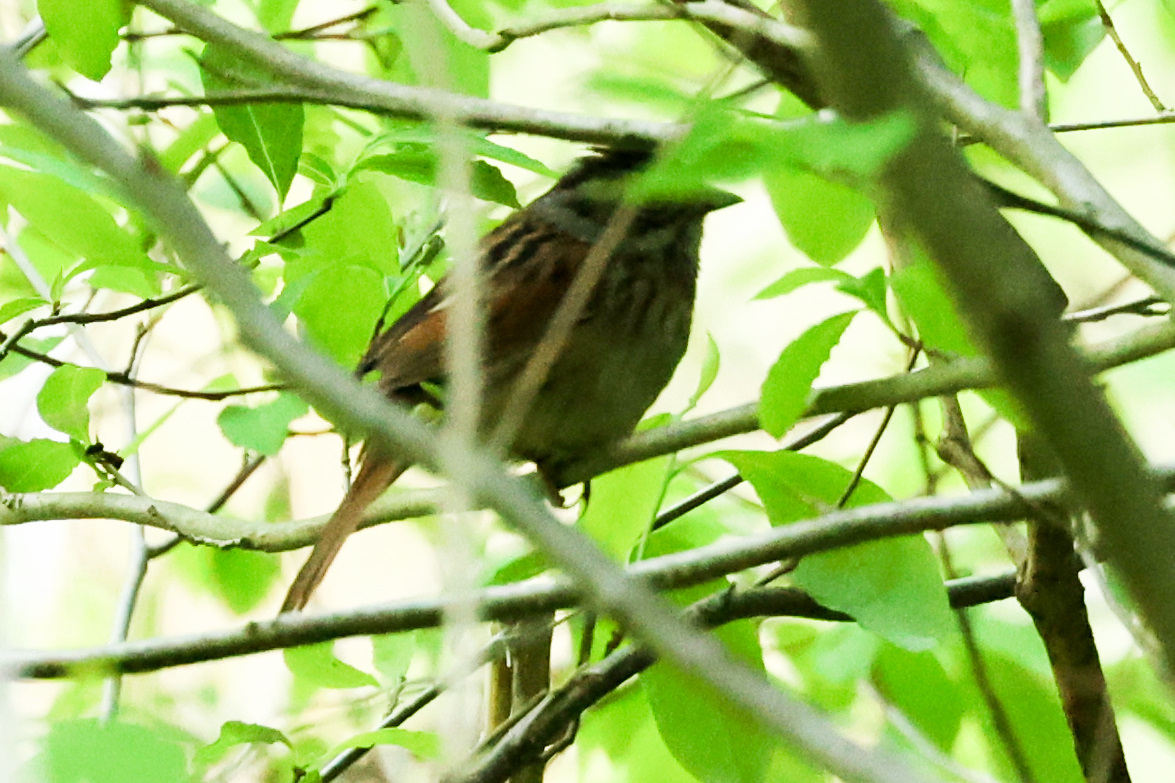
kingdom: Animalia
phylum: Chordata
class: Aves
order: Passeriformes
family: Passerellidae
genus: Melospiza
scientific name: Melospiza georgiana
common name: Swamp sparrow
